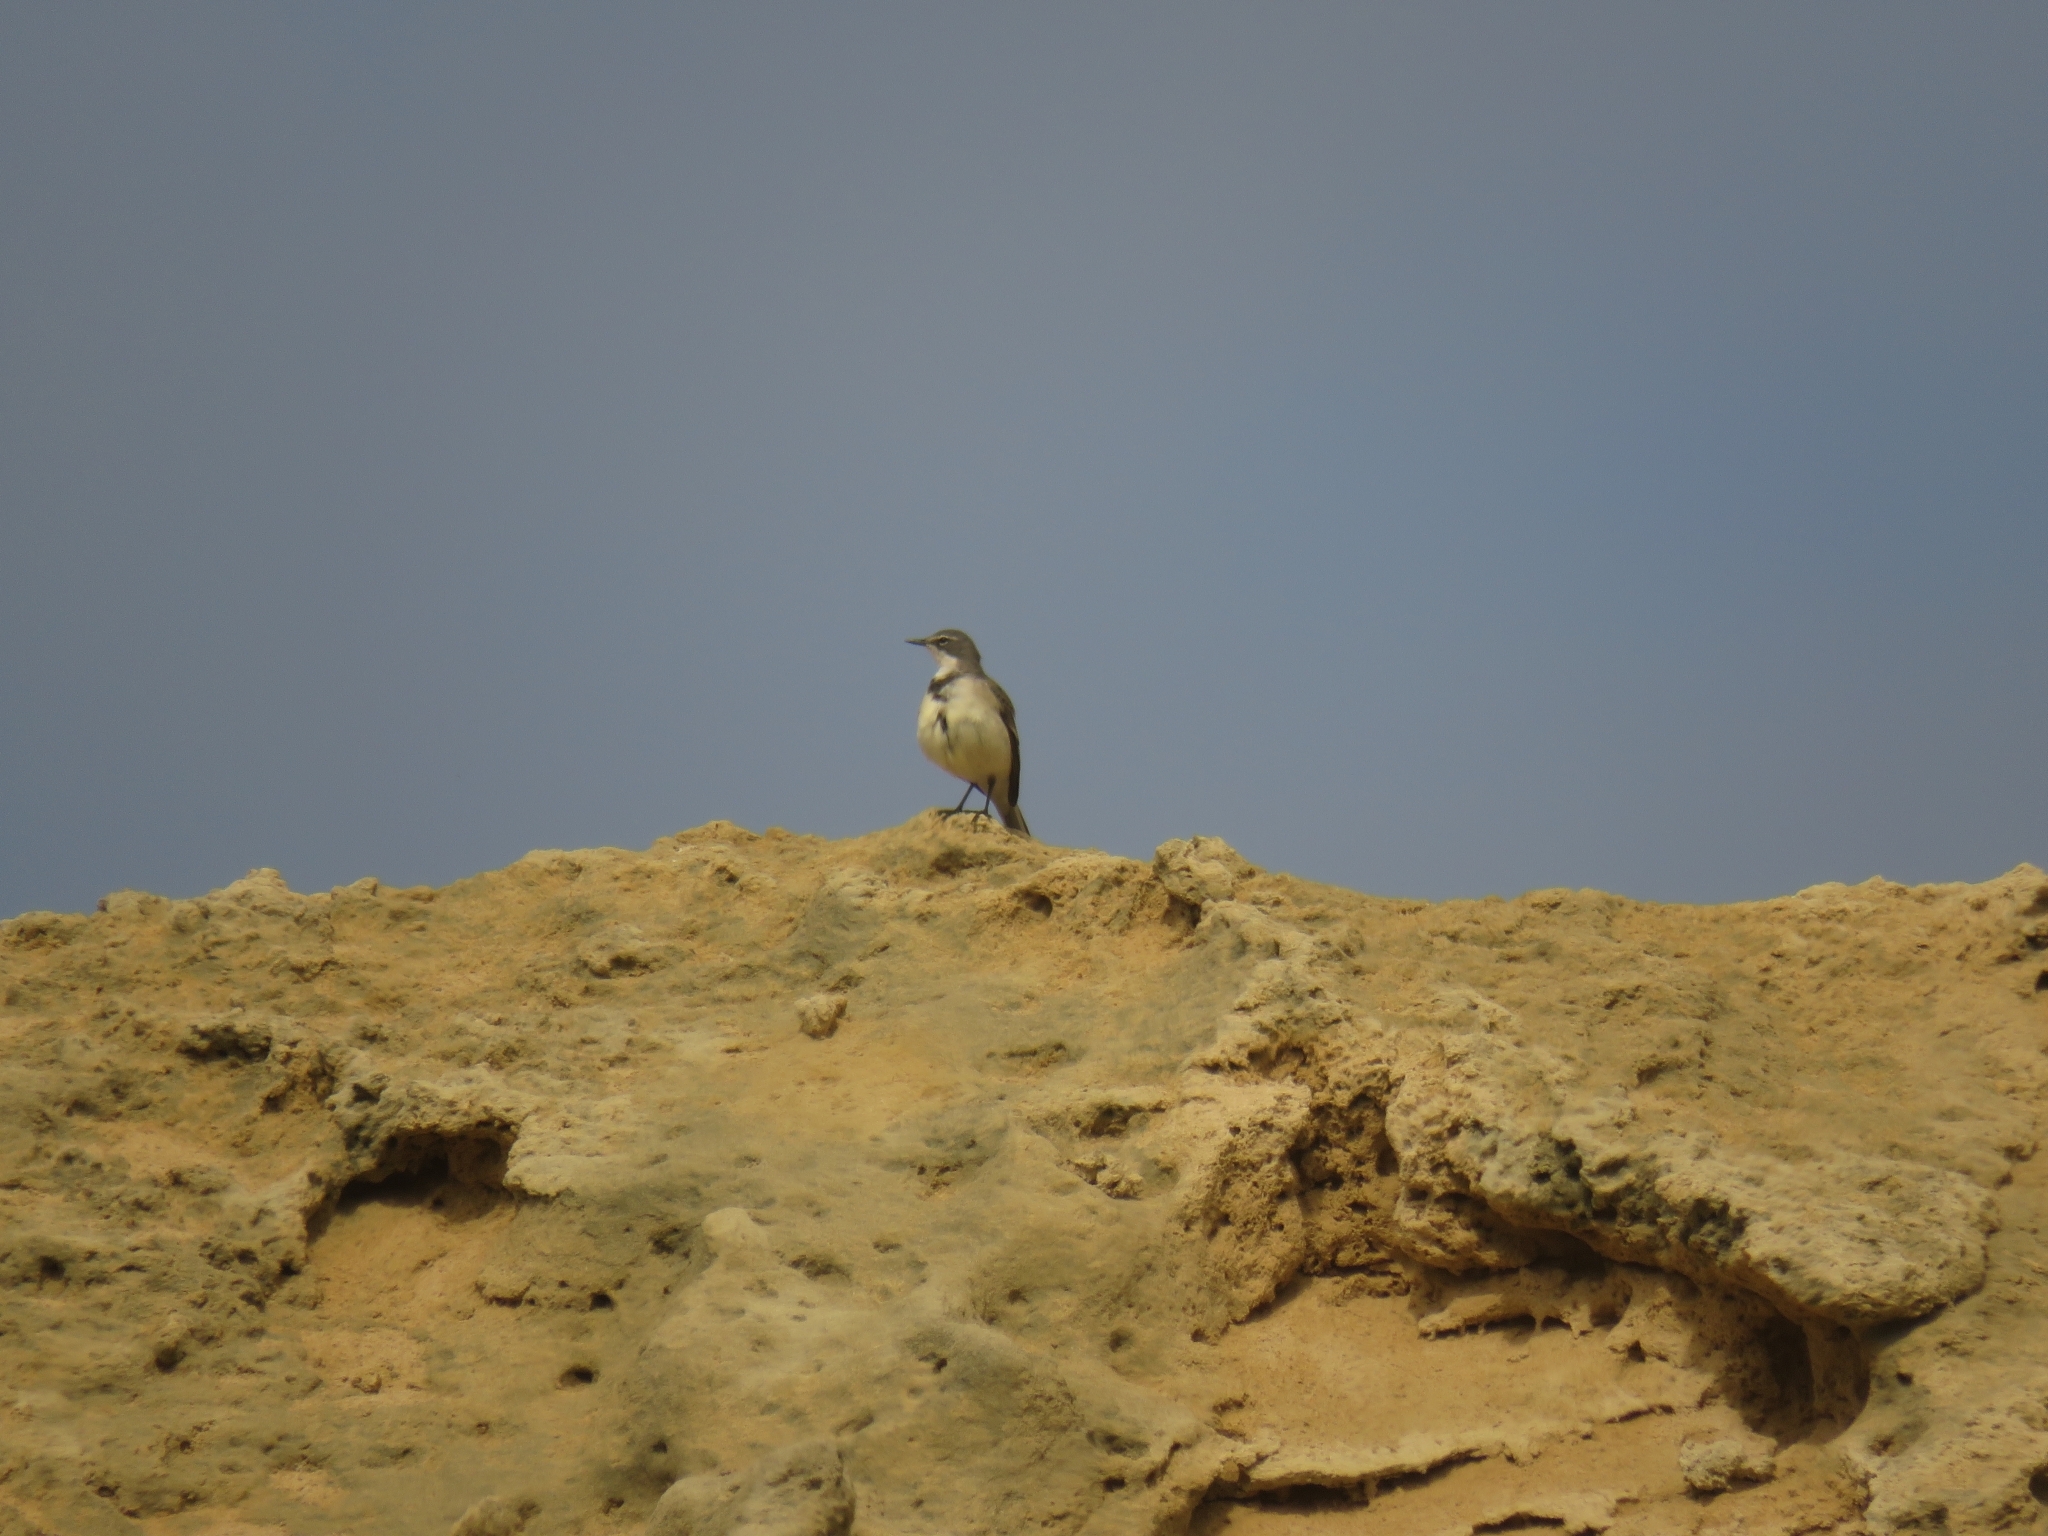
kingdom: Animalia
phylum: Chordata
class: Aves
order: Passeriformes
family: Motacillidae
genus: Motacilla
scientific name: Motacilla capensis
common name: Cape wagtail
